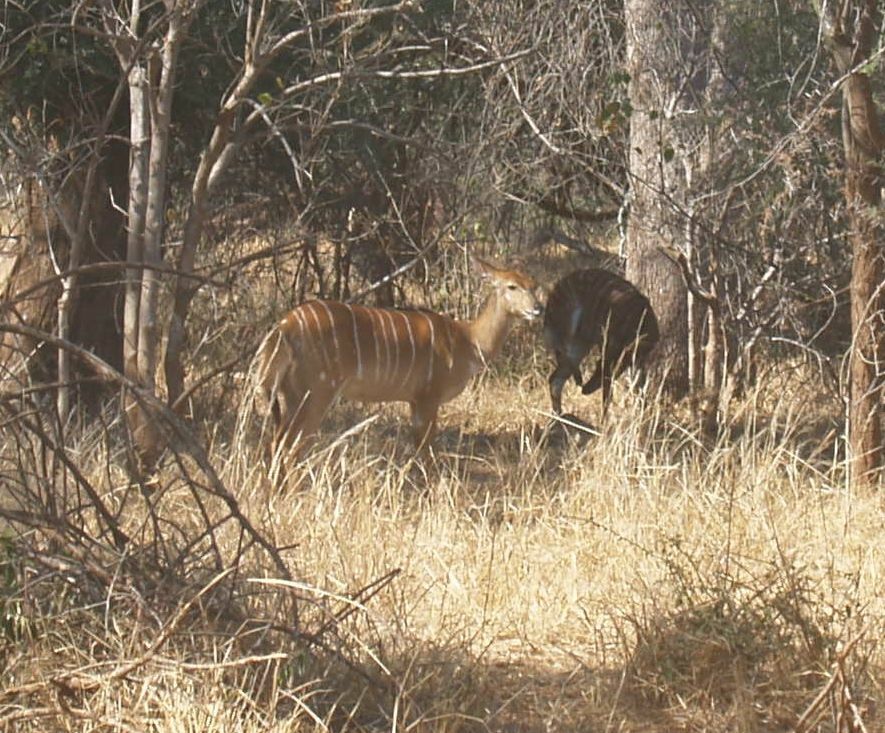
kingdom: Animalia
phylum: Chordata
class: Mammalia
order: Artiodactyla
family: Bovidae
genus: Tragelaphus
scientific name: Tragelaphus angasii
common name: Nyala
